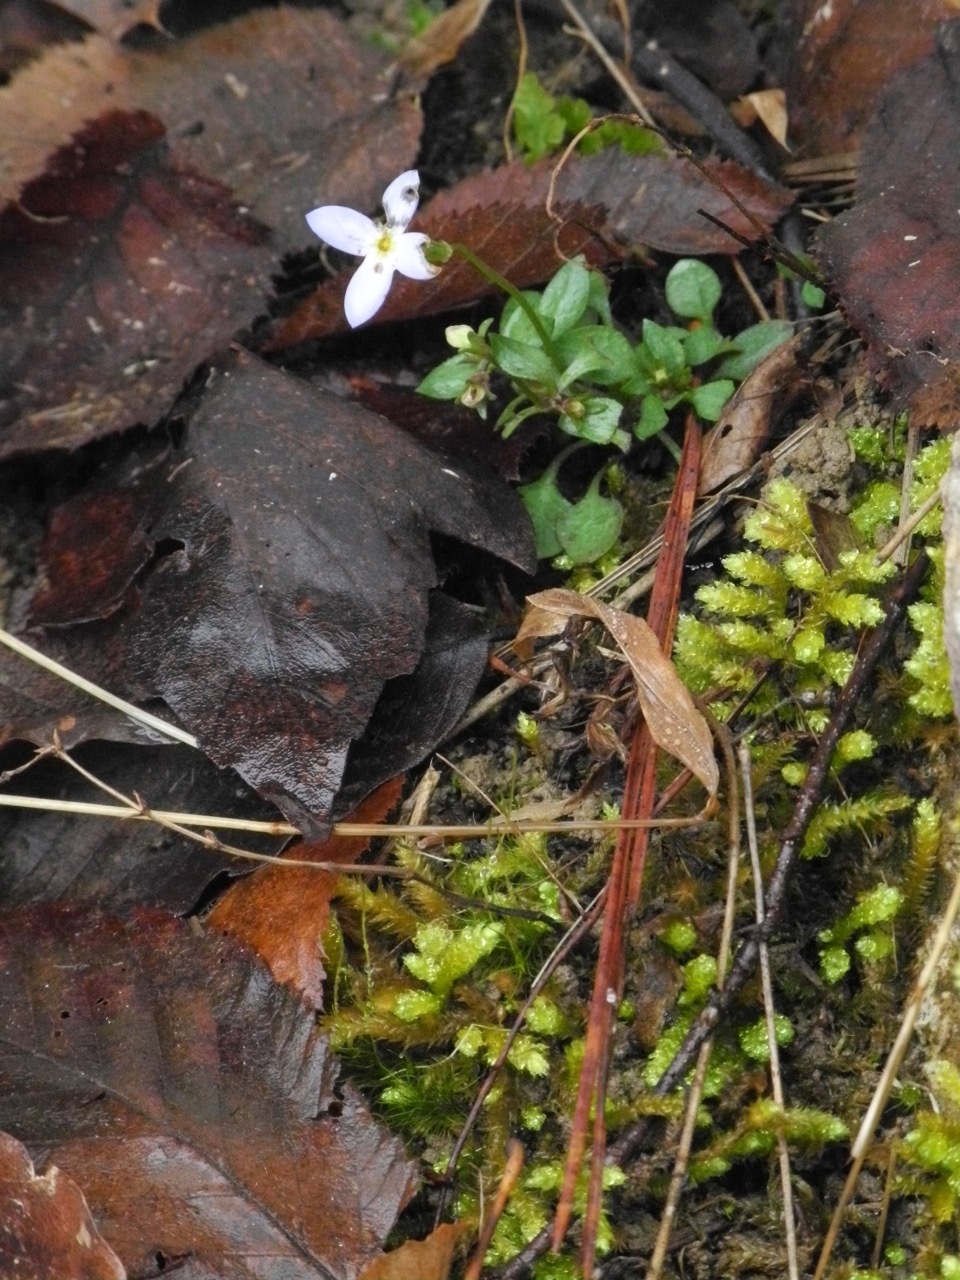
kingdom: Plantae
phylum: Tracheophyta
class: Magnoliopsida
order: Gentianales
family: Rubiaceae
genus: Houstonia
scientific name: Houstonia caerulea
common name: Bluets
